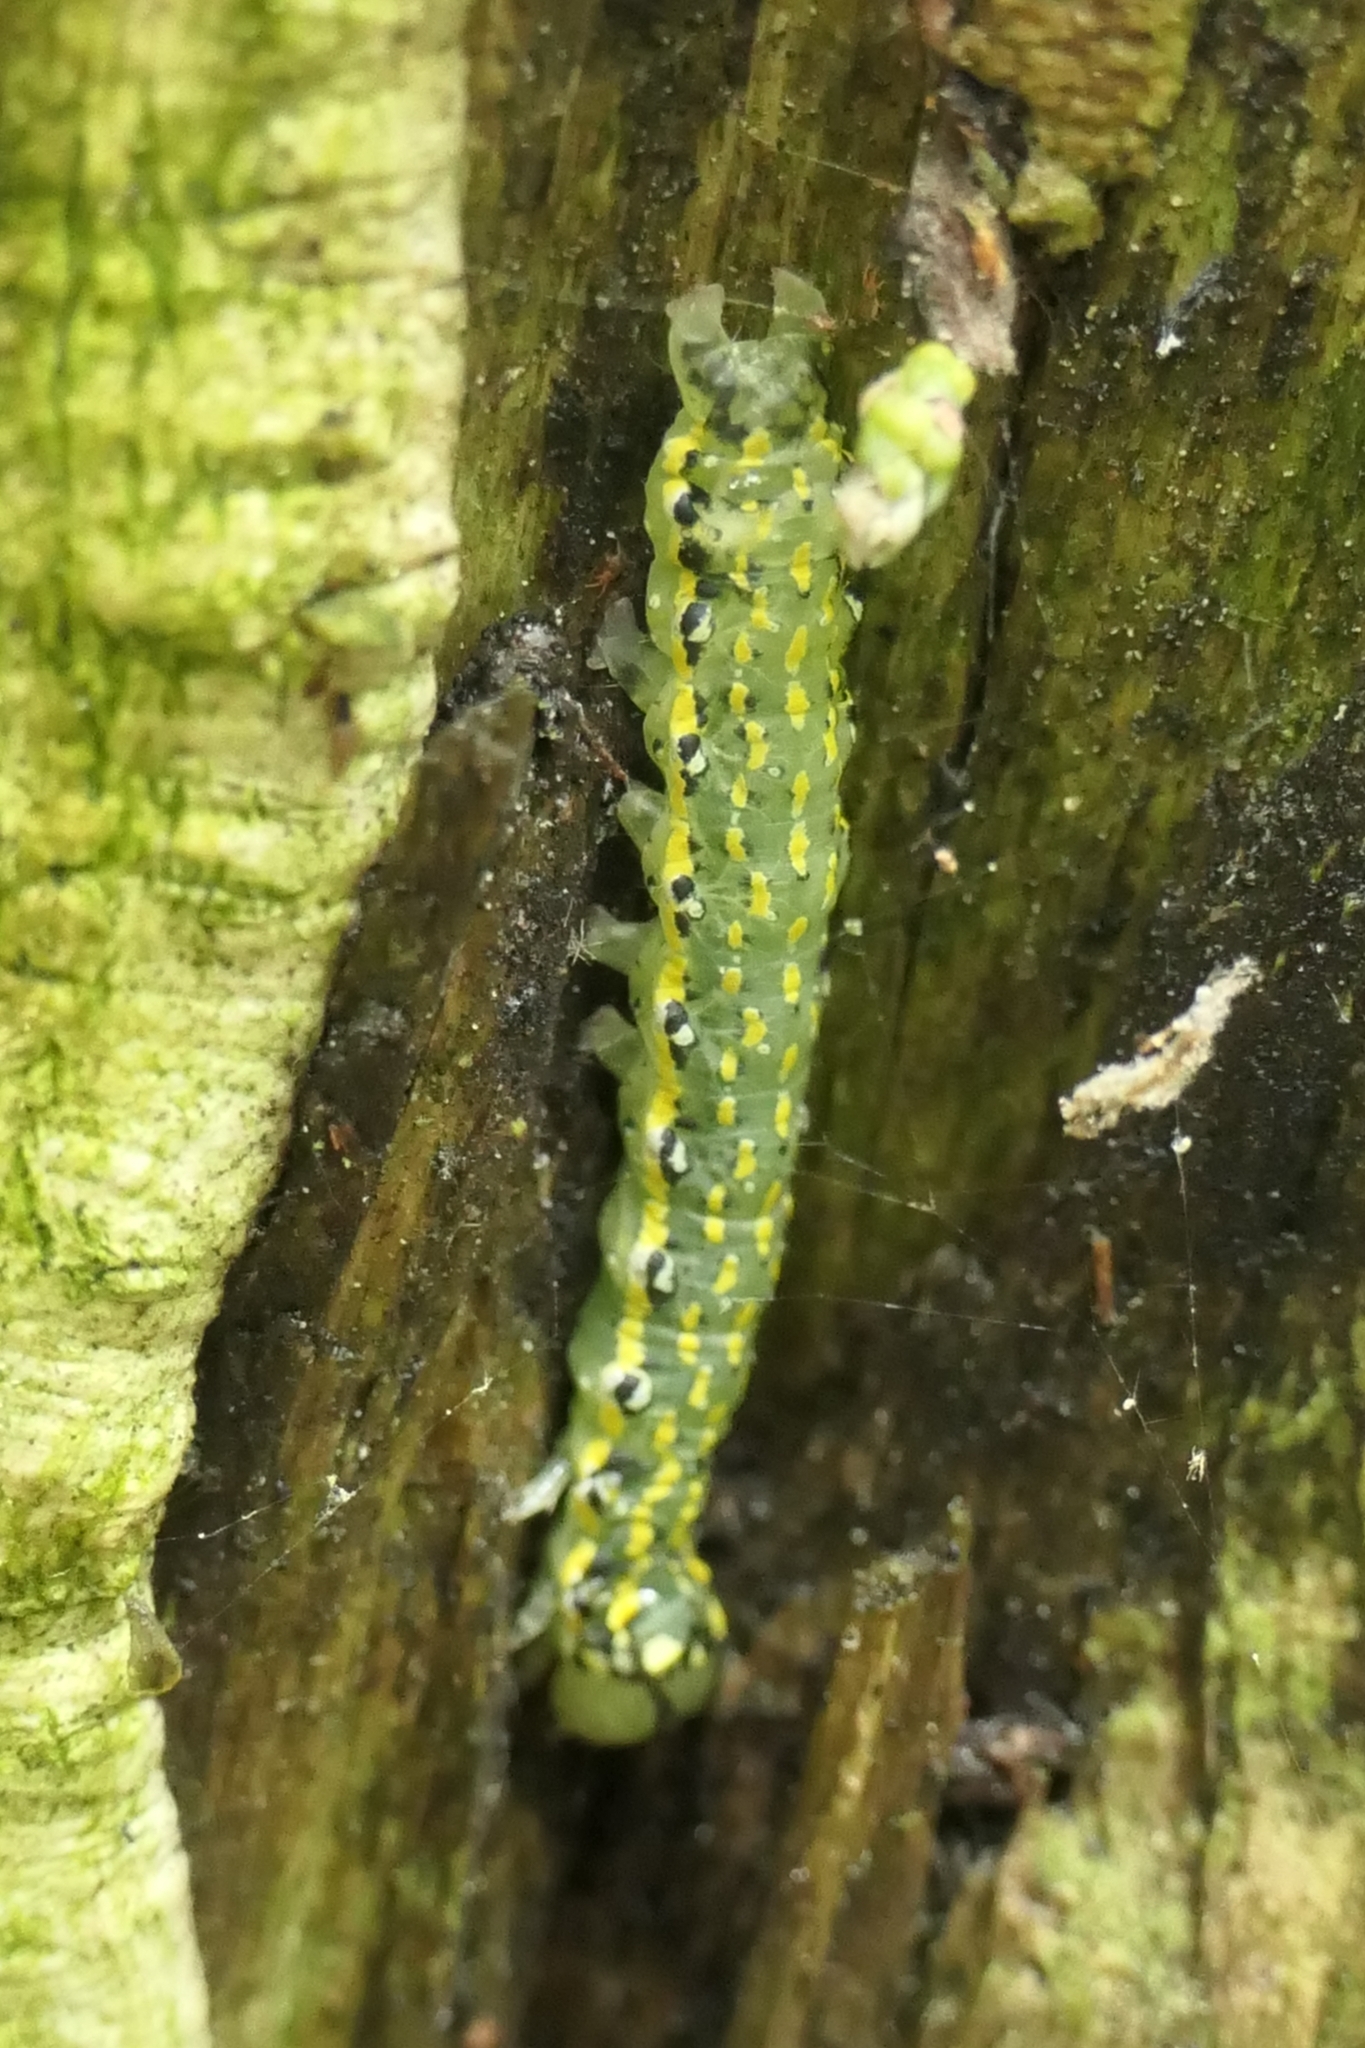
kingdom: Animalia
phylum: Arthropoda
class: Insecta
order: Lepidoptera
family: Noctuidae
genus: Austramathes
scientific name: Austramathes purpurea
